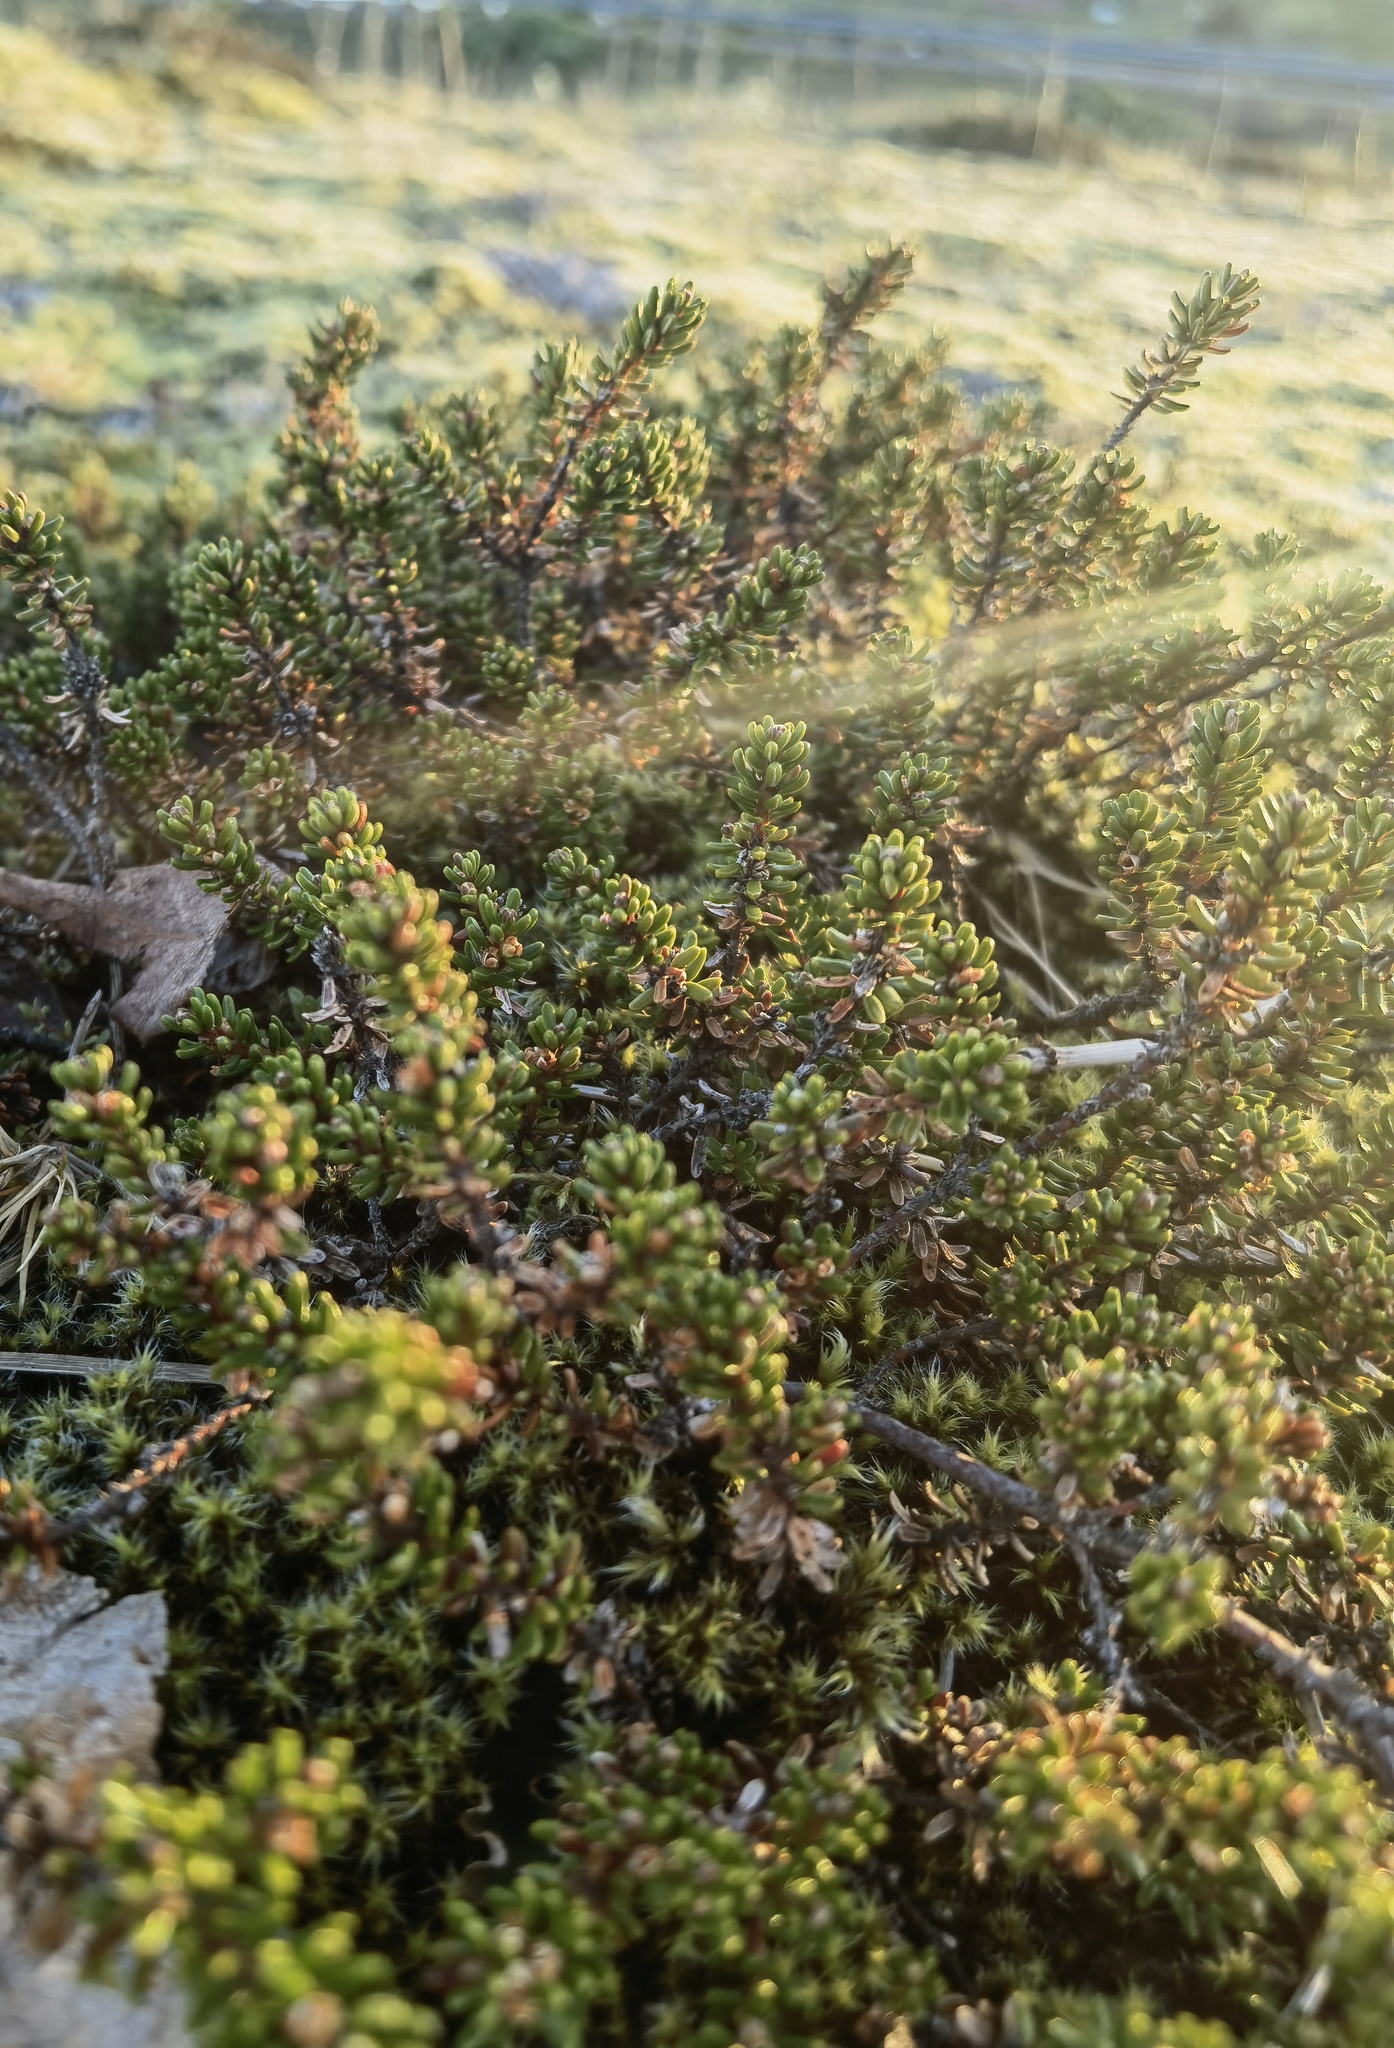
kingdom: Plantae
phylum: Tracheophyta
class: Magnoliopsida
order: Ericales
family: Ericaceae
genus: Empetrum
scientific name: Empetrum nigrum
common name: Black crowberry
